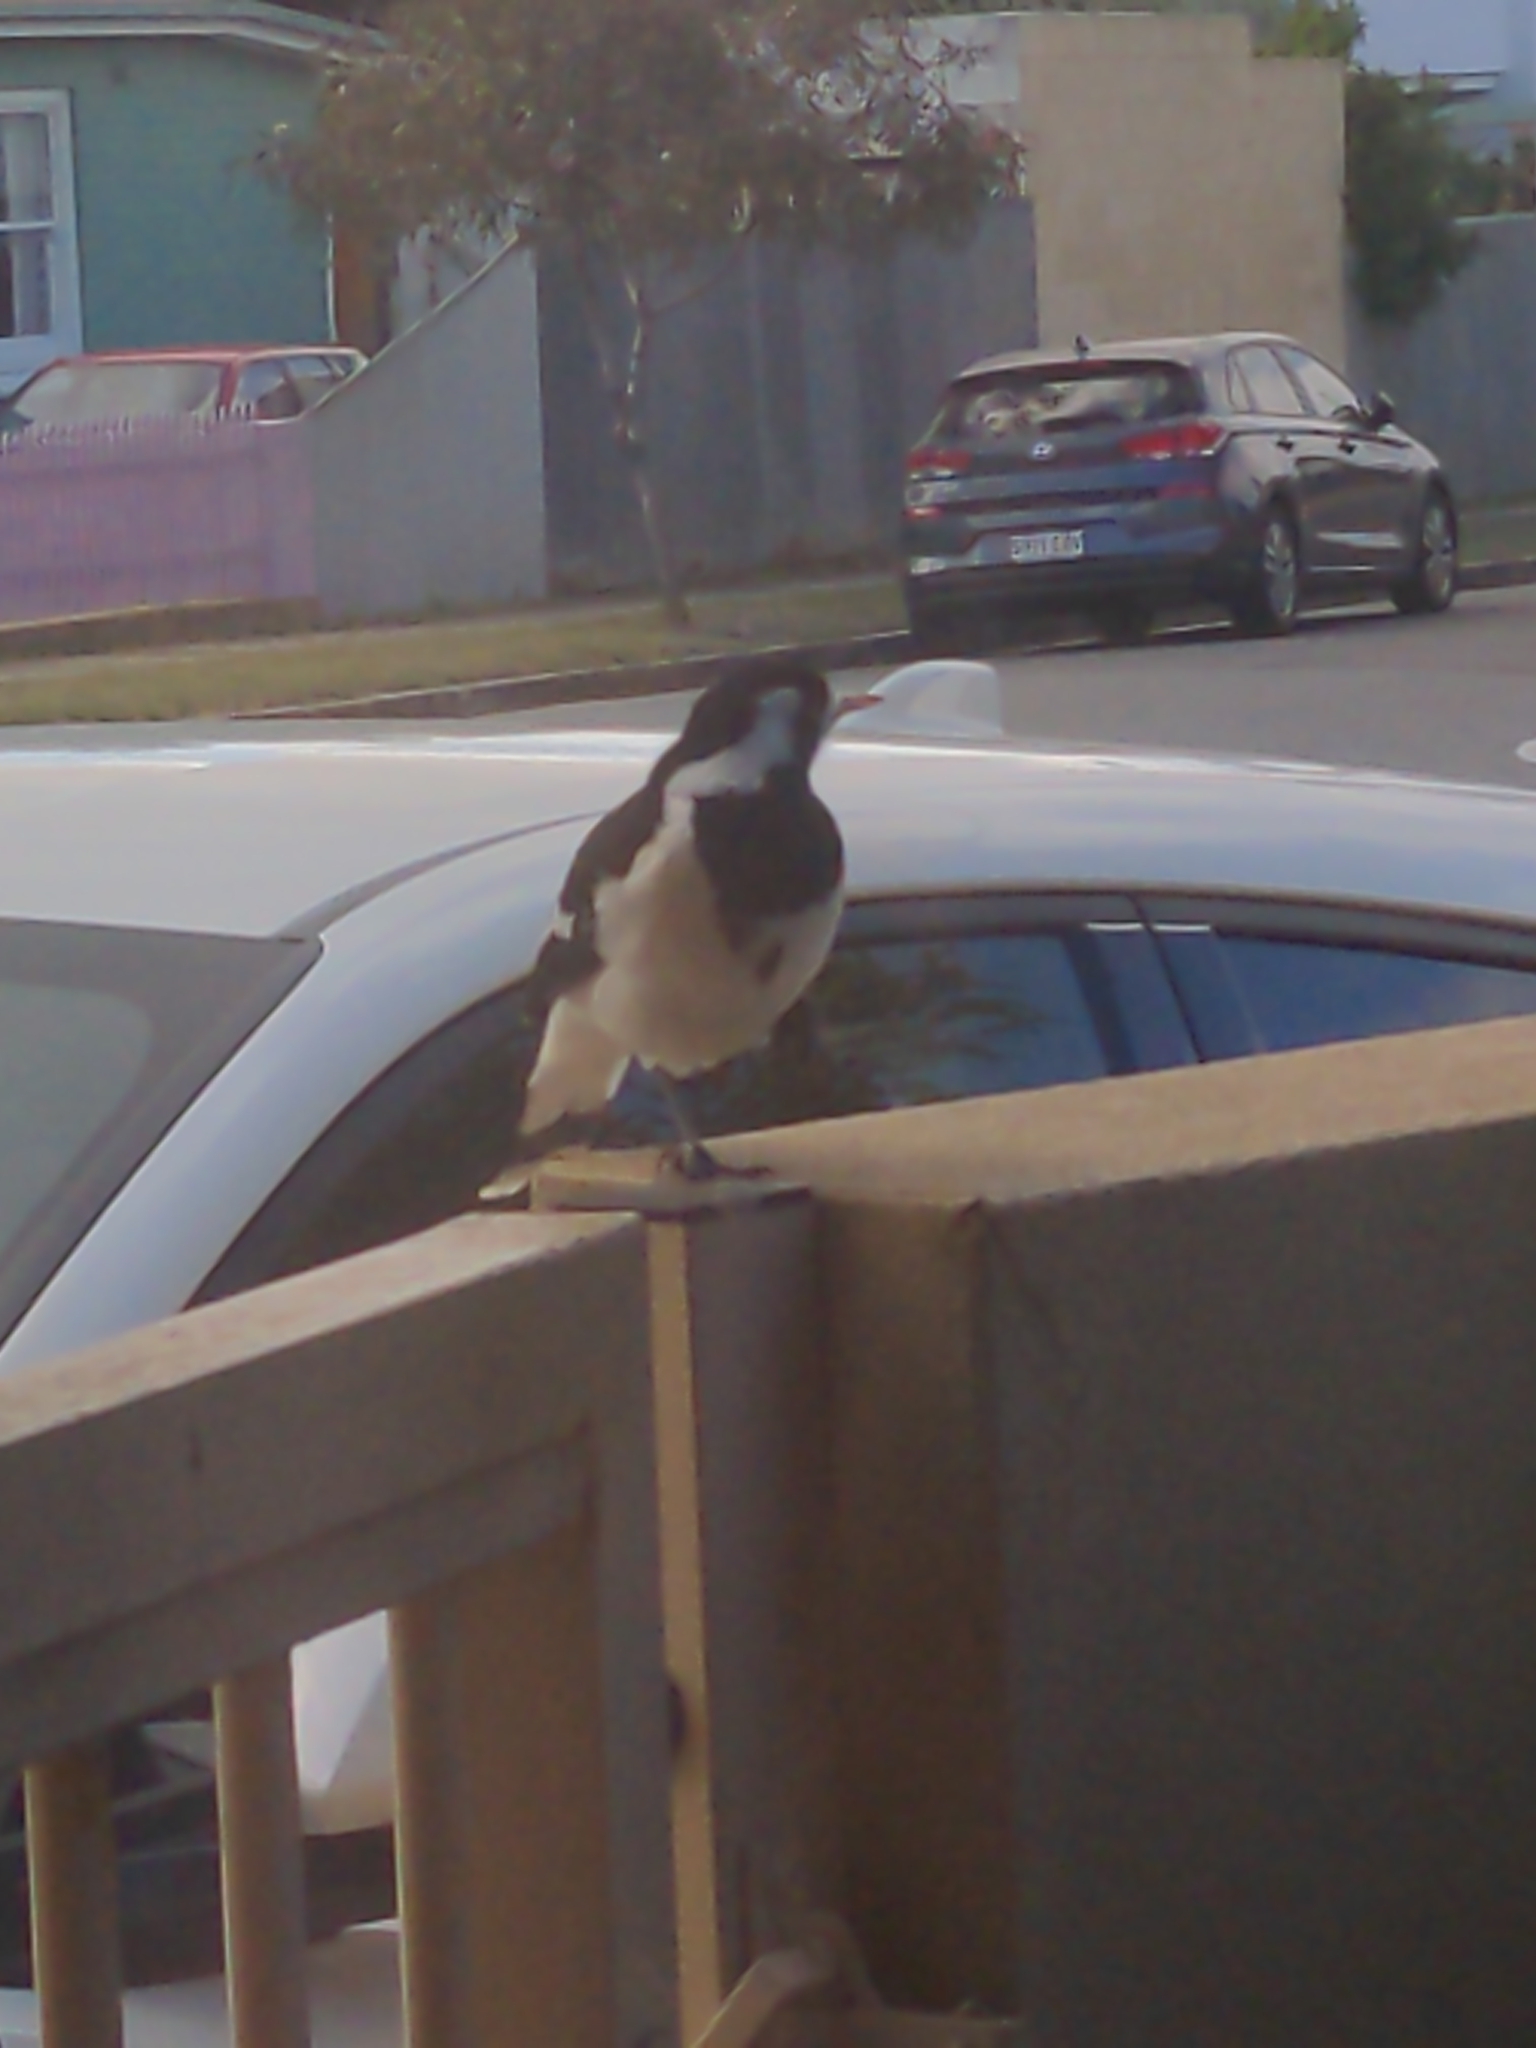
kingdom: Animalia
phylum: Chordata
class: Aves
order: Passeriformes
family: Monarchidae
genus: Grallina
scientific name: Grallina cyanoleuca
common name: Magpie-lark
